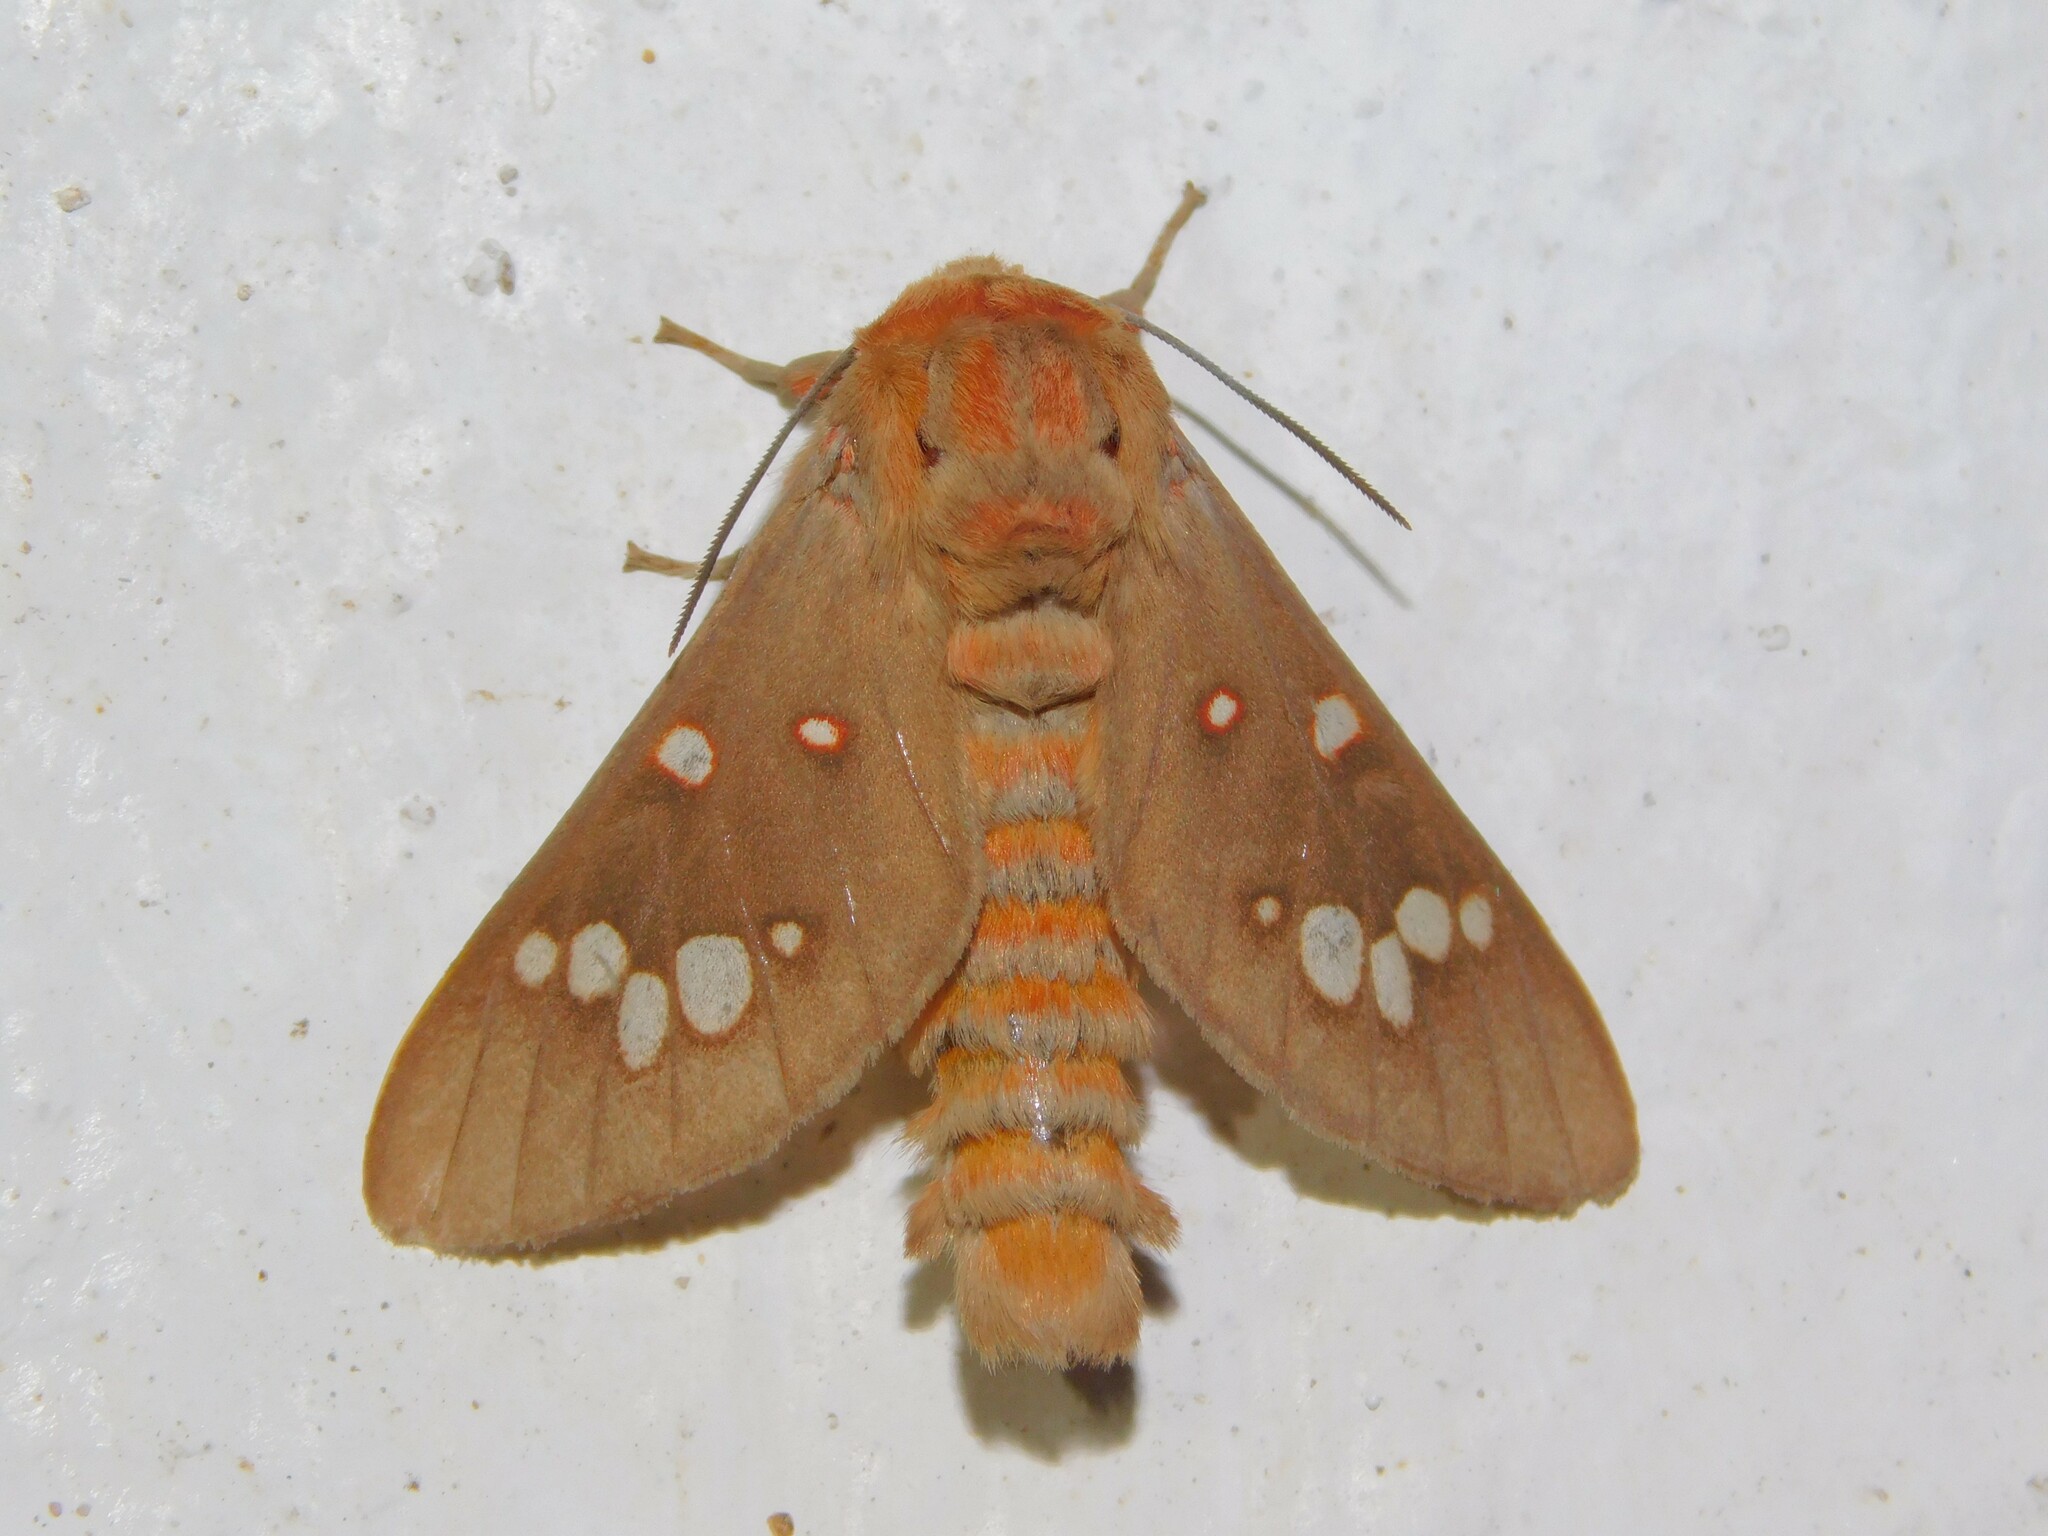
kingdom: Animalia
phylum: Arthropoda
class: Insecta
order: Lepidoptera
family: Erebidae
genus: Balacra
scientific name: Balacra preussi
